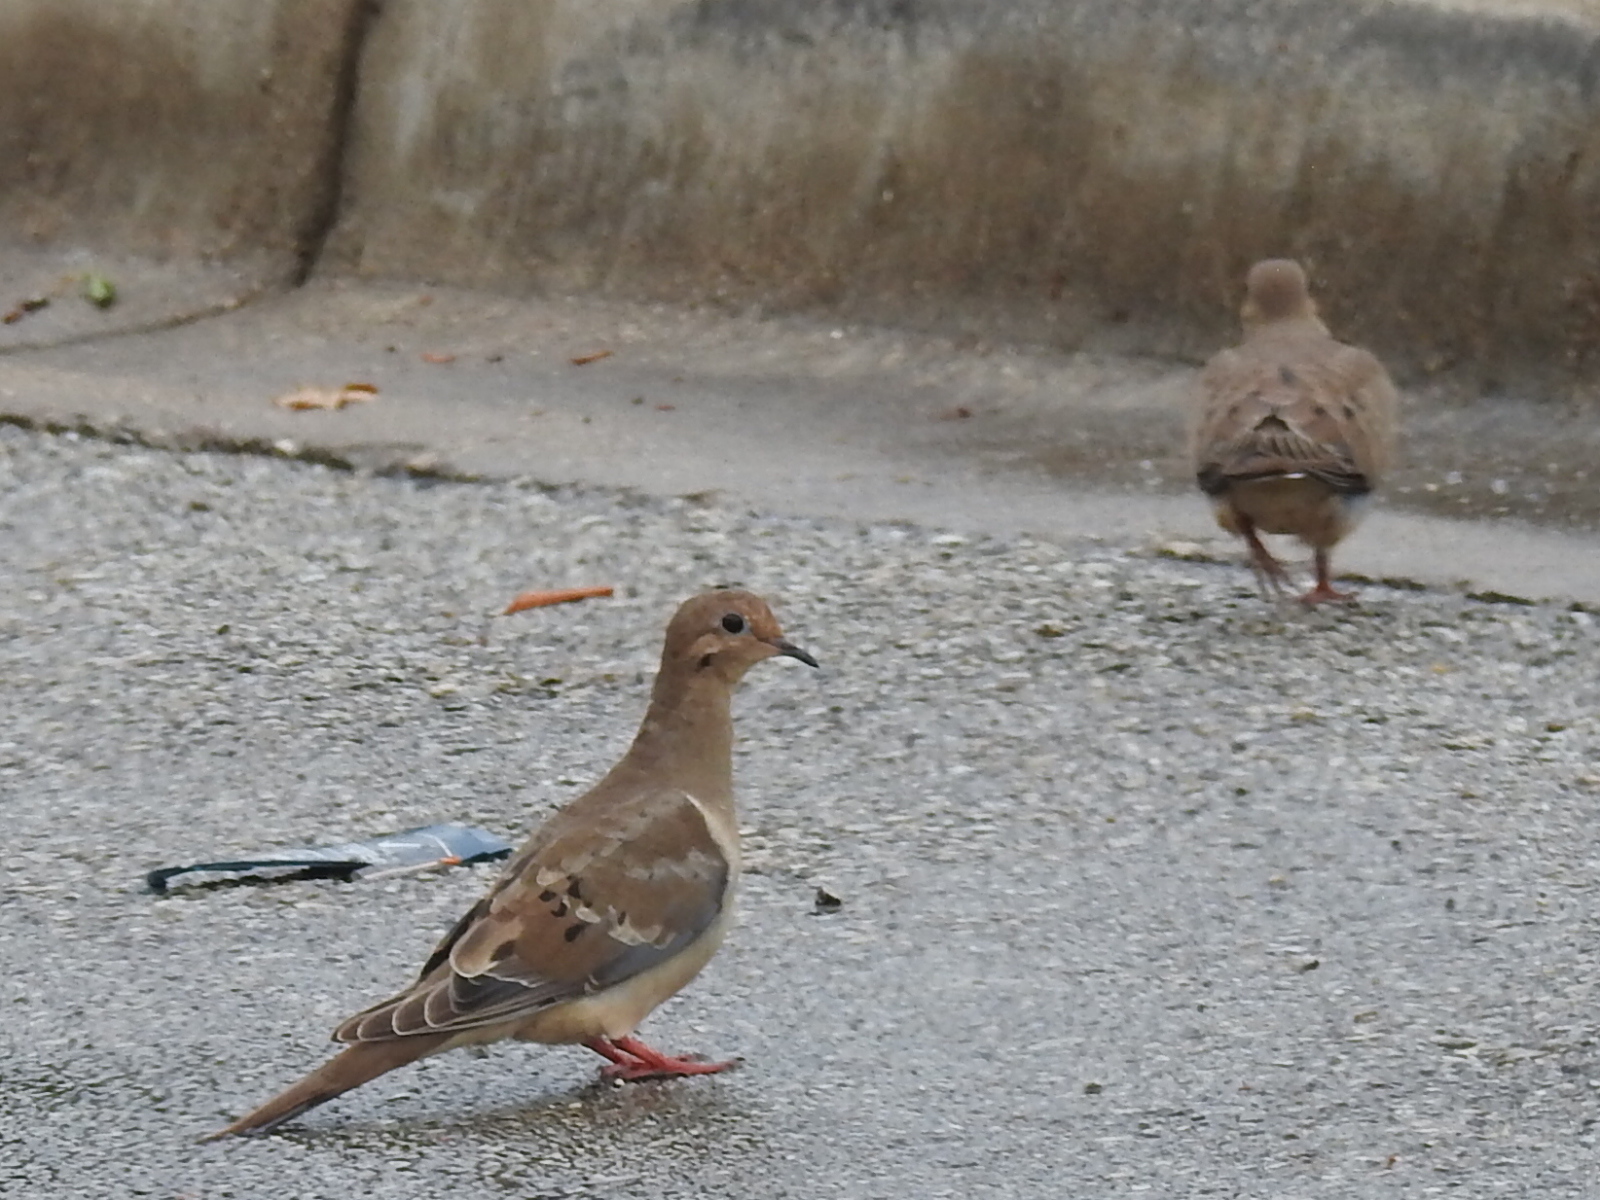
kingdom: Animalia
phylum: Chordata
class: Aves
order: Columbiformes
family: Columbidae
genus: Zenaida
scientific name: Zenaida macroura
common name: Mourning dove
